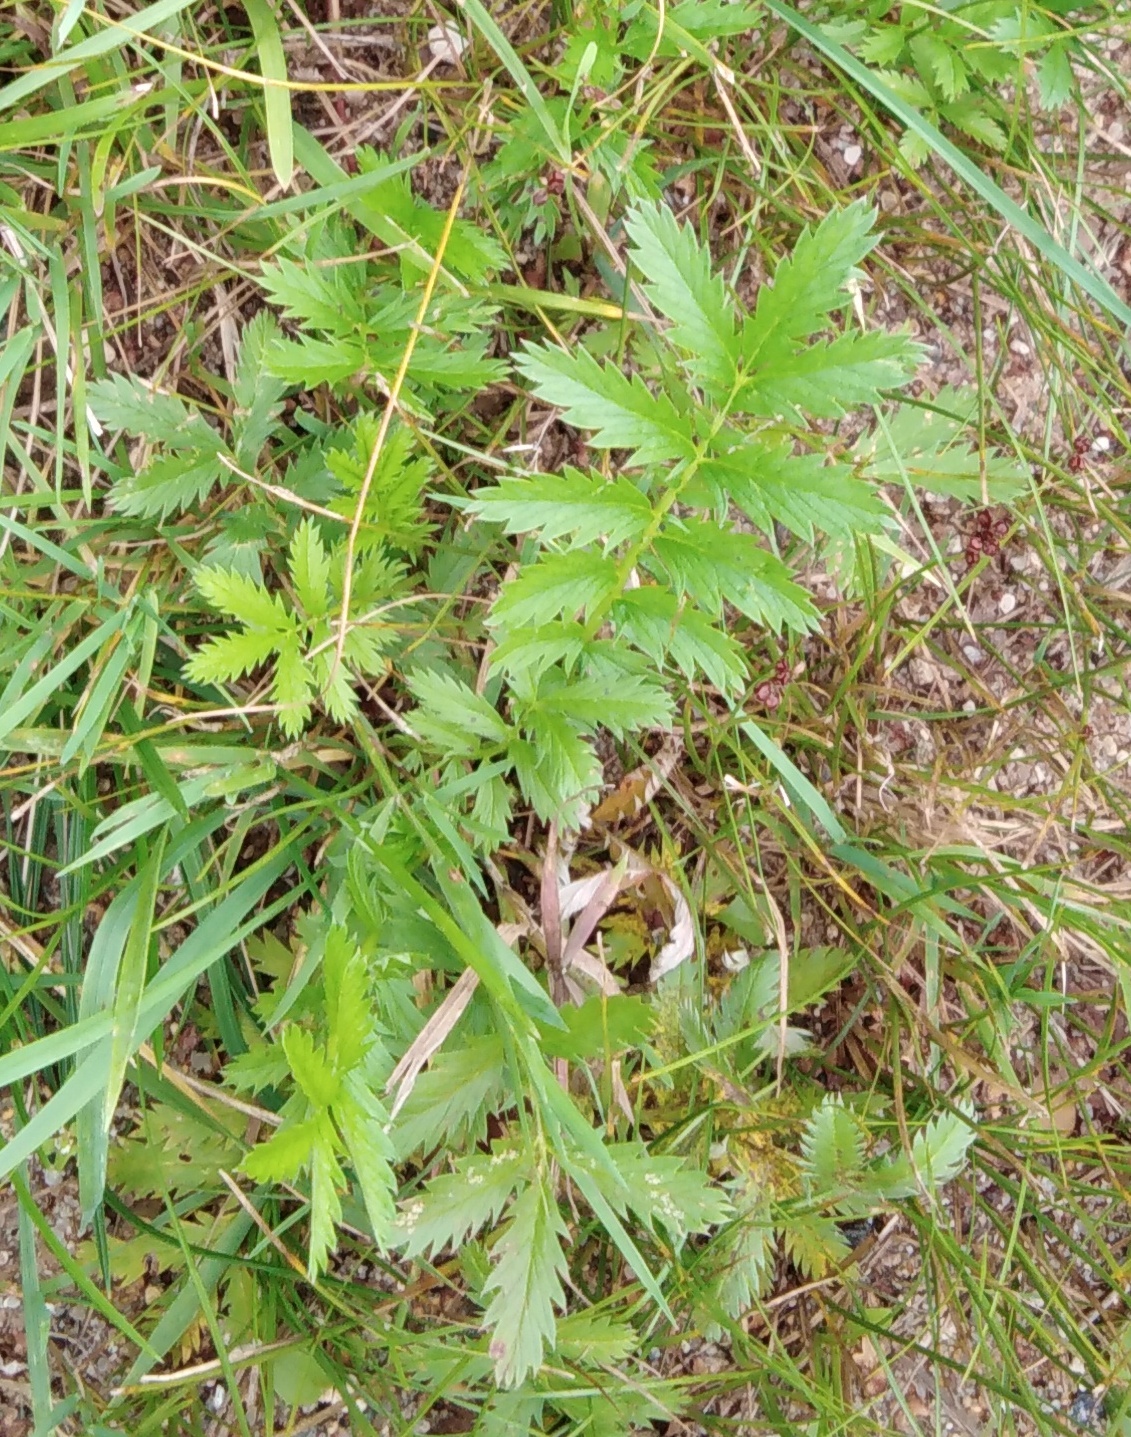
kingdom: Plantae
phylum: Tracheophyta
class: Magnoliopsida
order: Rosales
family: Rosaceae
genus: Argentina
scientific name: Argentina anserina
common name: Common silverweed
